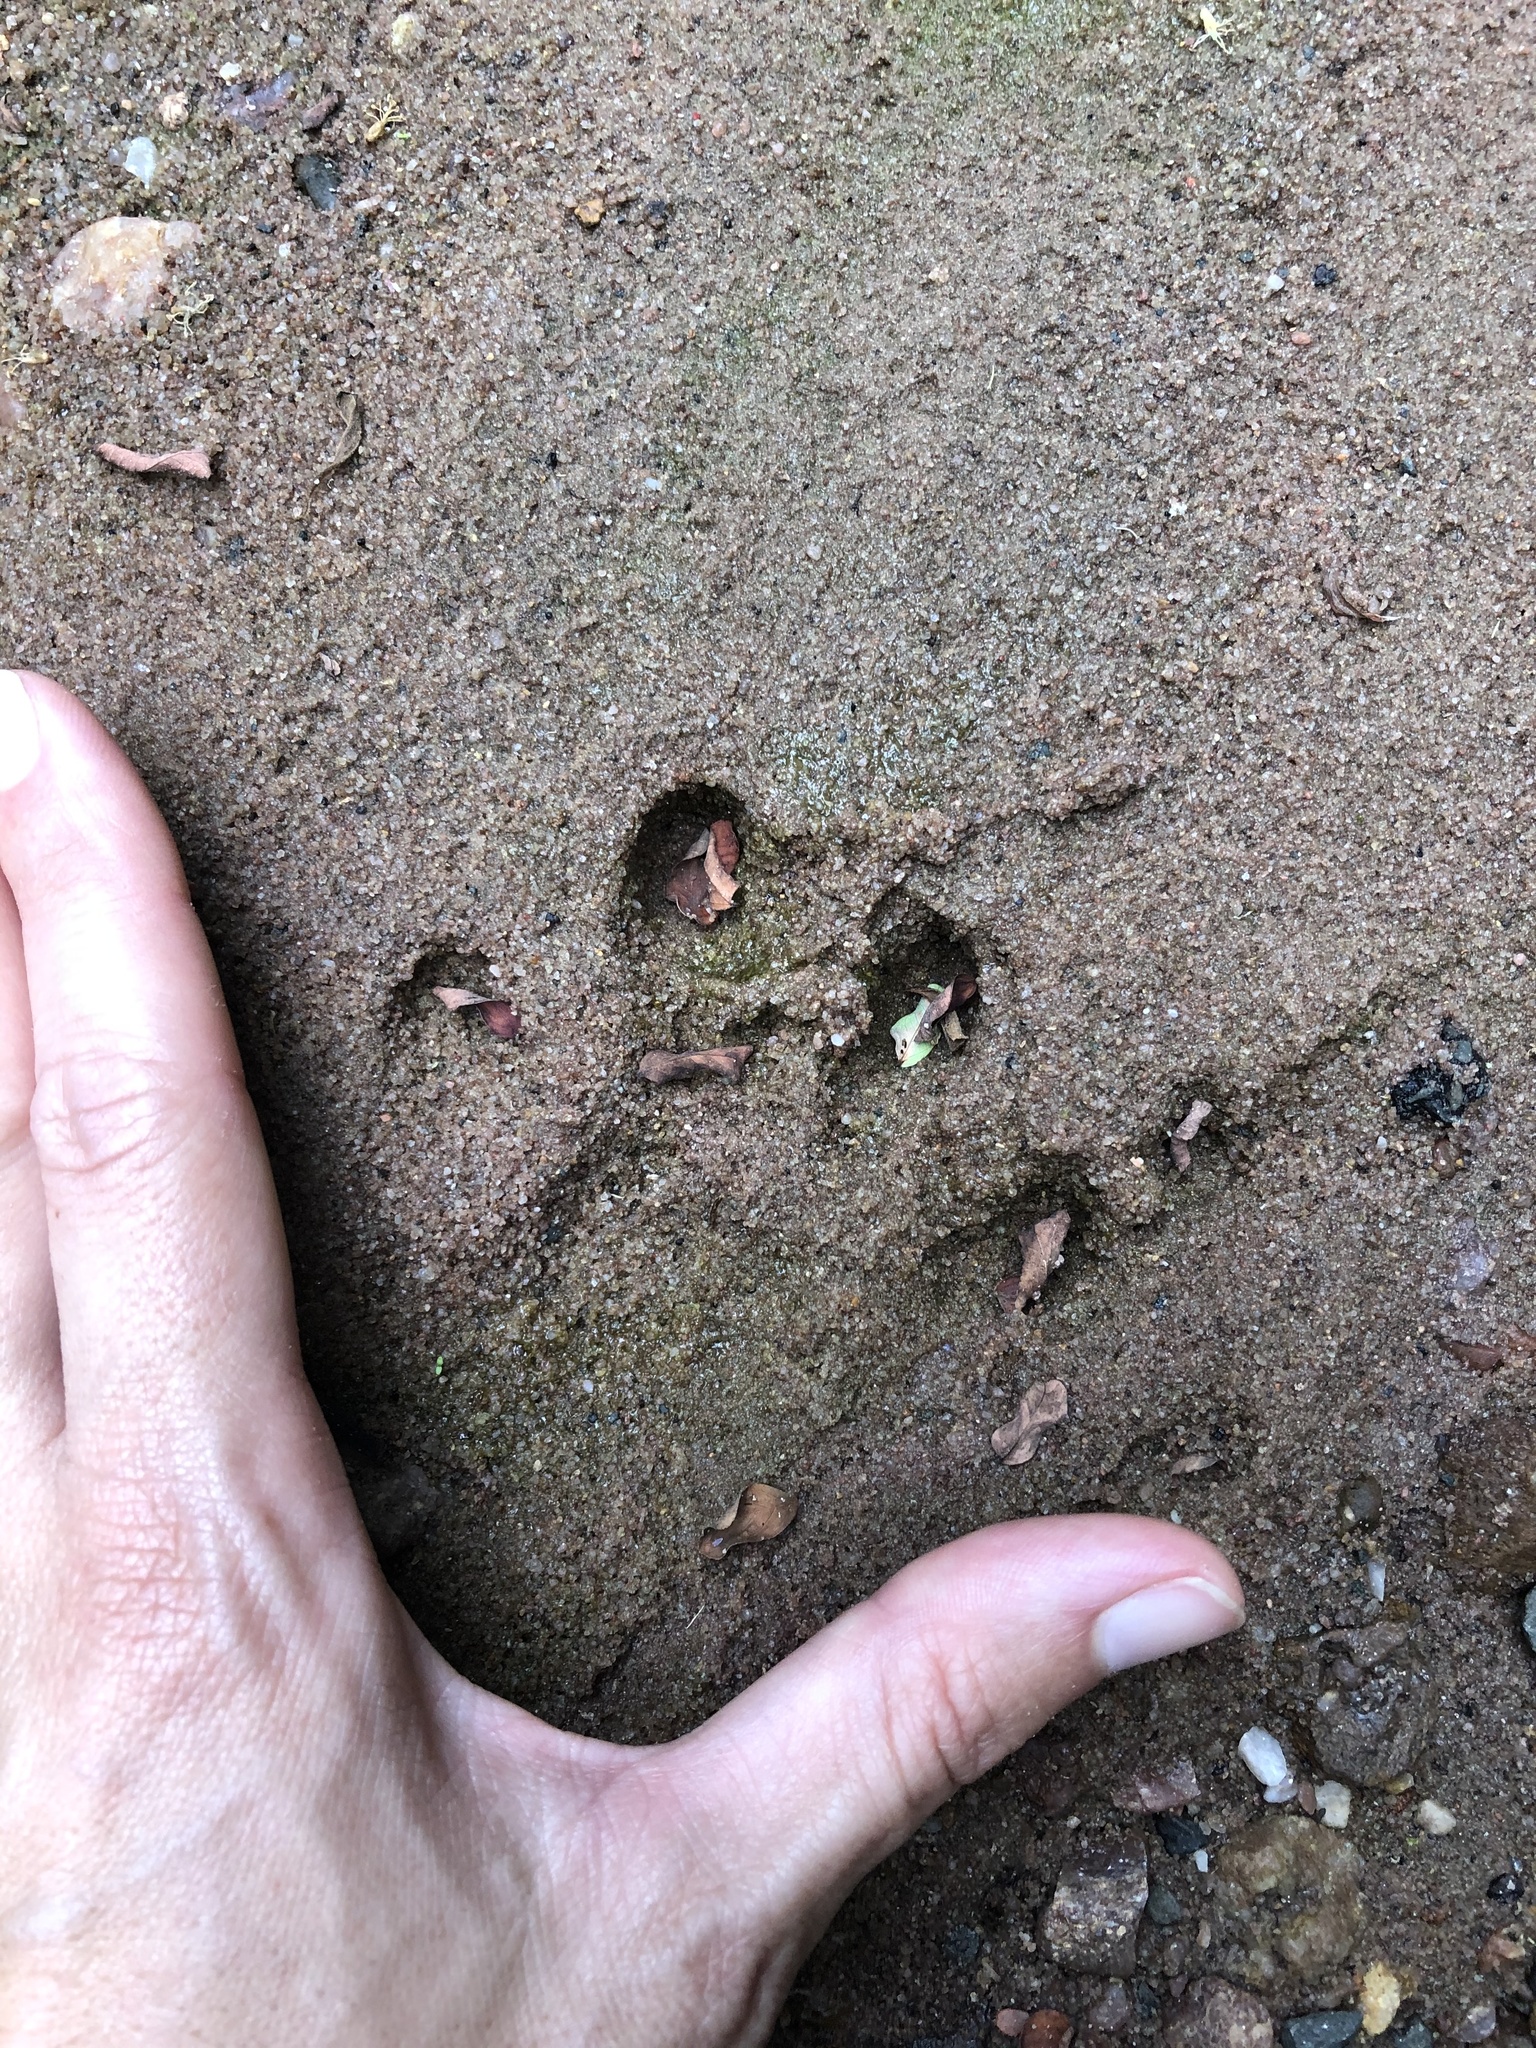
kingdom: Animalia
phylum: Chordata
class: Mammalia
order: Carnivora
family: Mustelidae
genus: Aonyx
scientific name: Aonyx capensis
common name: African clawless otter
